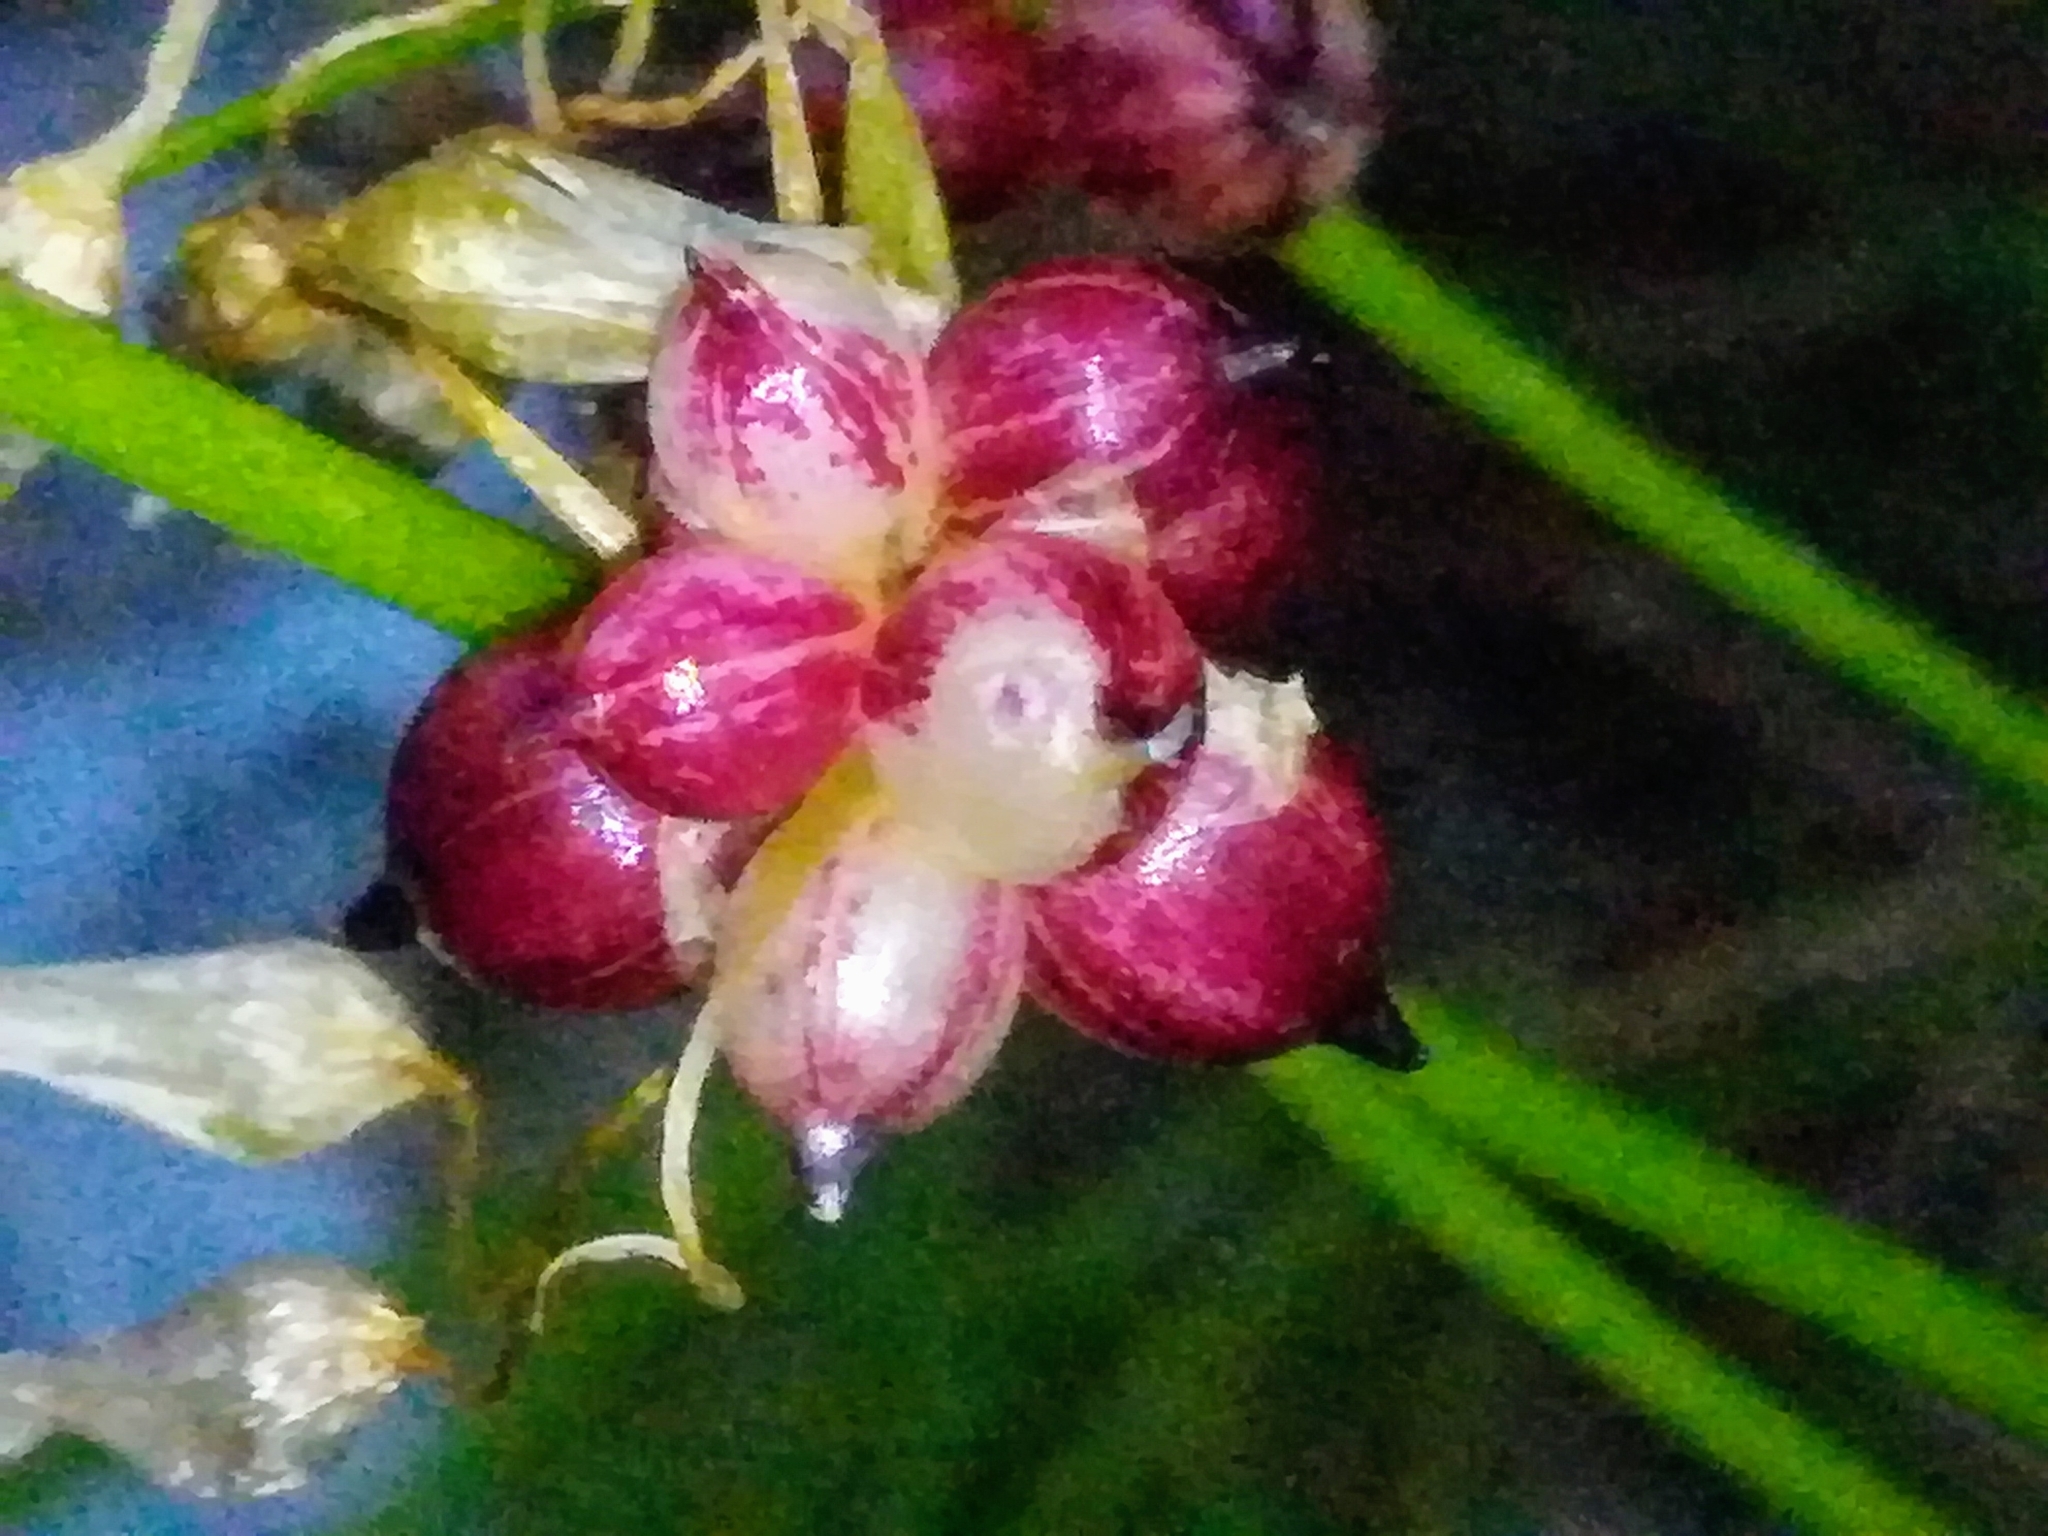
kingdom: Plantae
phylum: Tracheophyta
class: Liliopsida
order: Asparagales
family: Amaryllidaceae
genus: Allium
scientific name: Allium roseum
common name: Rosy garlic
